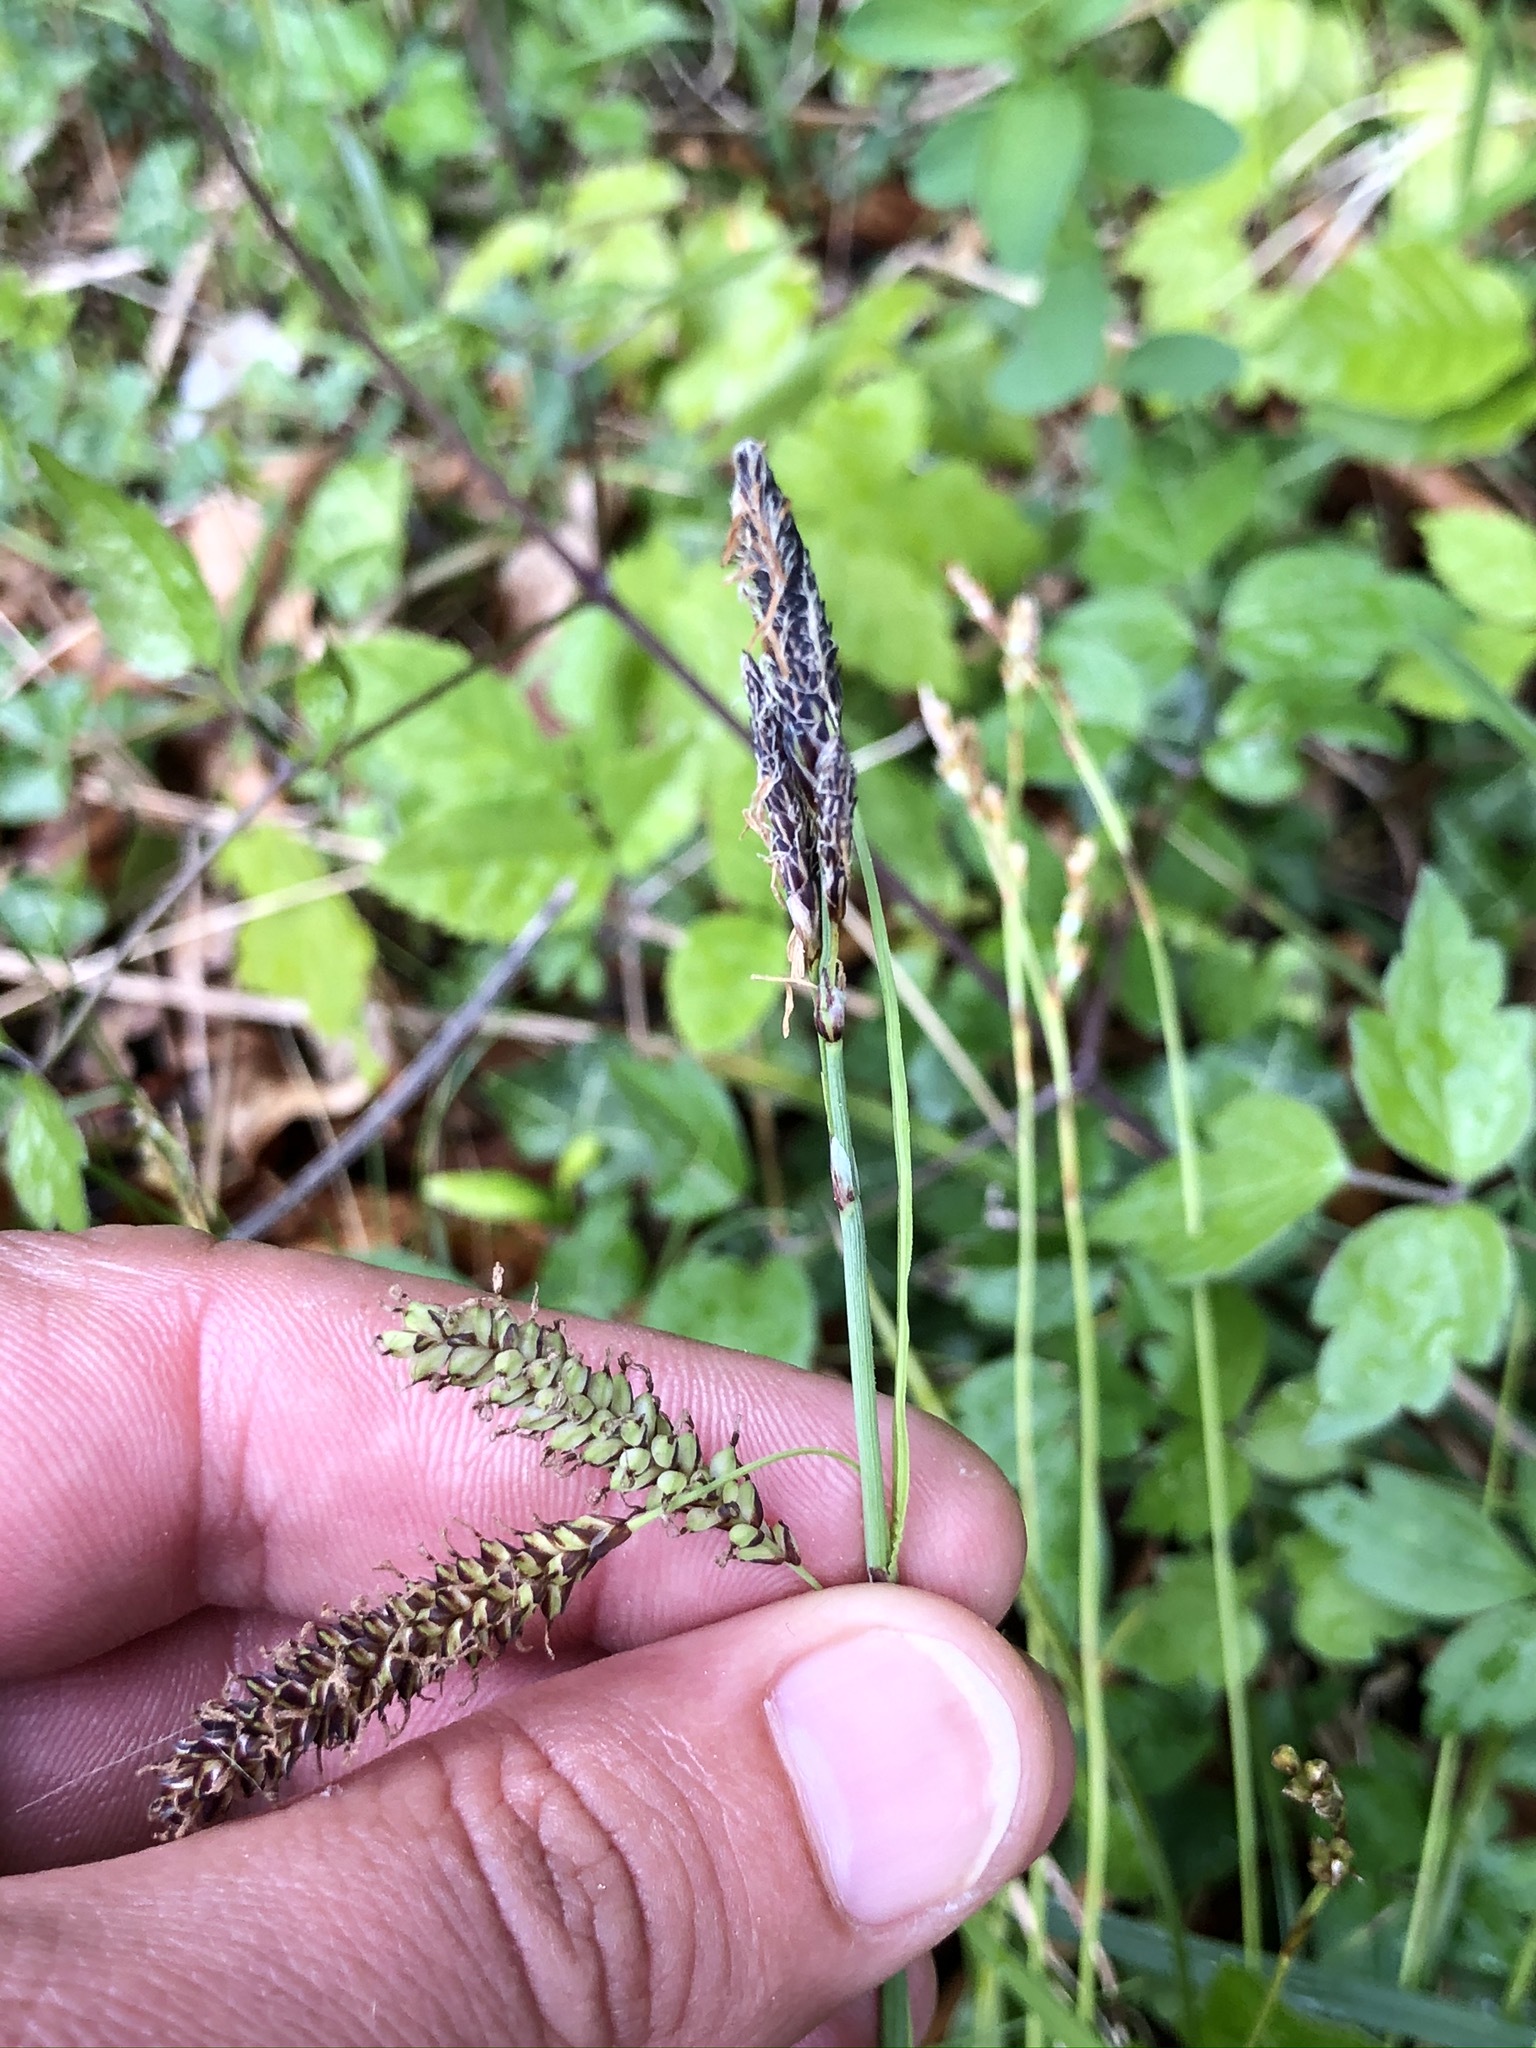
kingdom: Plantae
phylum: Tracheophyta
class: Liliopsida
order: Poales
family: Cyperaceae
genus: Carex
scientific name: Carex flacca
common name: Glaucous sedge
